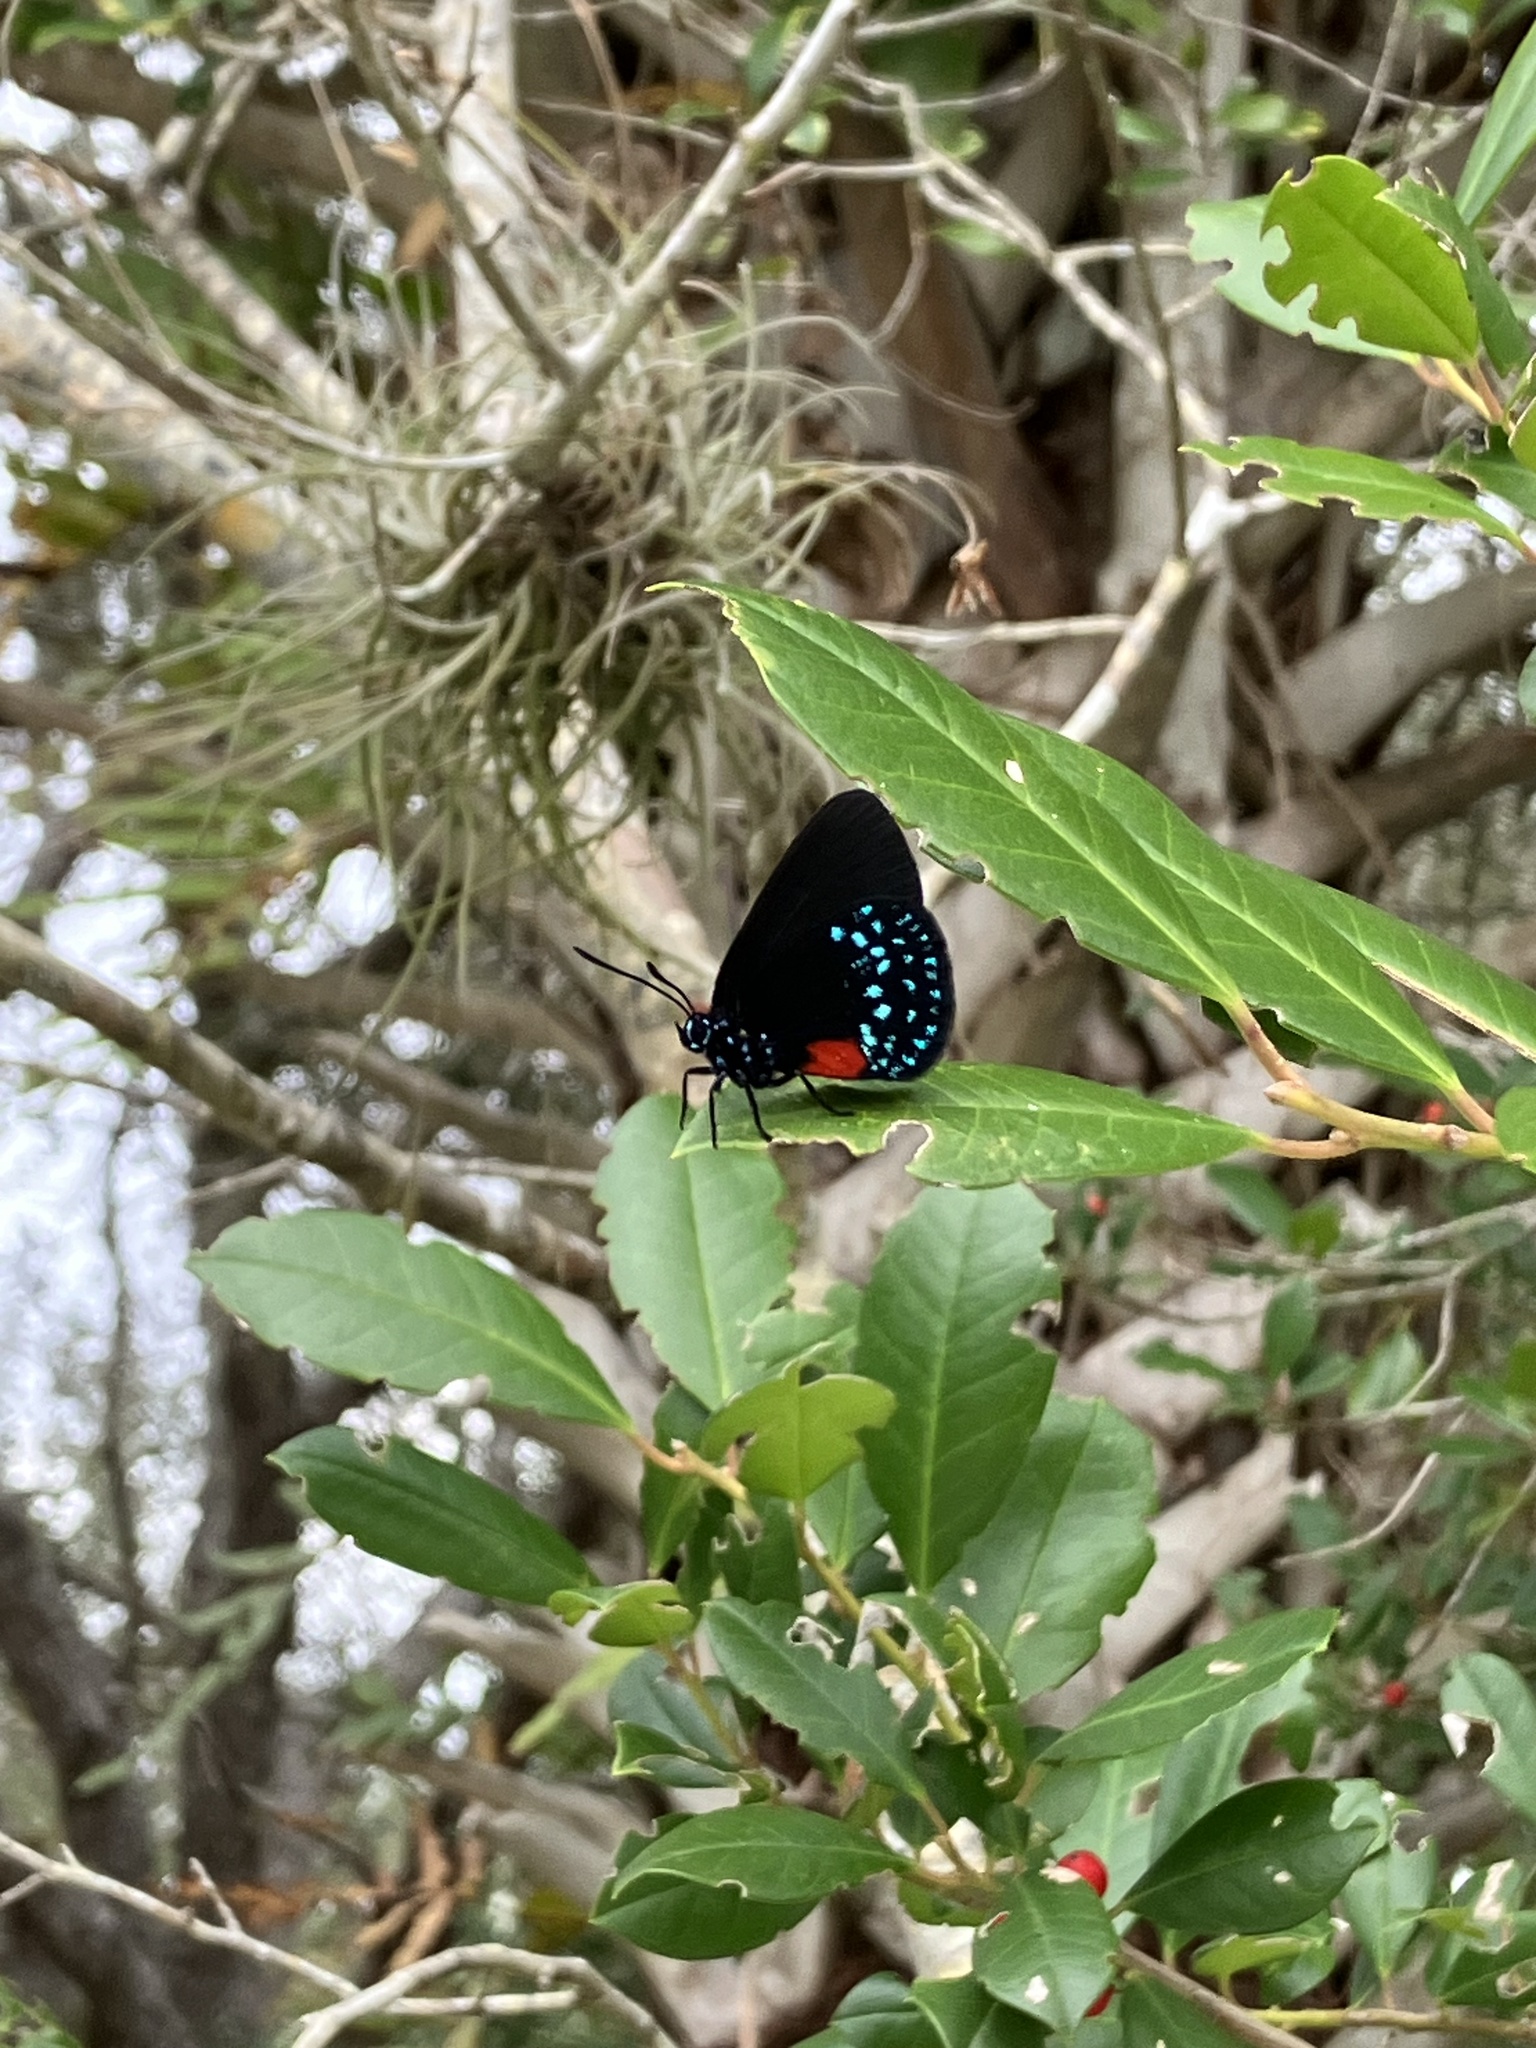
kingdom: Animalia
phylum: Arthropoda
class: Insecta
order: Lepidoptera
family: Lycaenidae
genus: Eumaeus
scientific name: Eumaeus atala
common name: Atala
